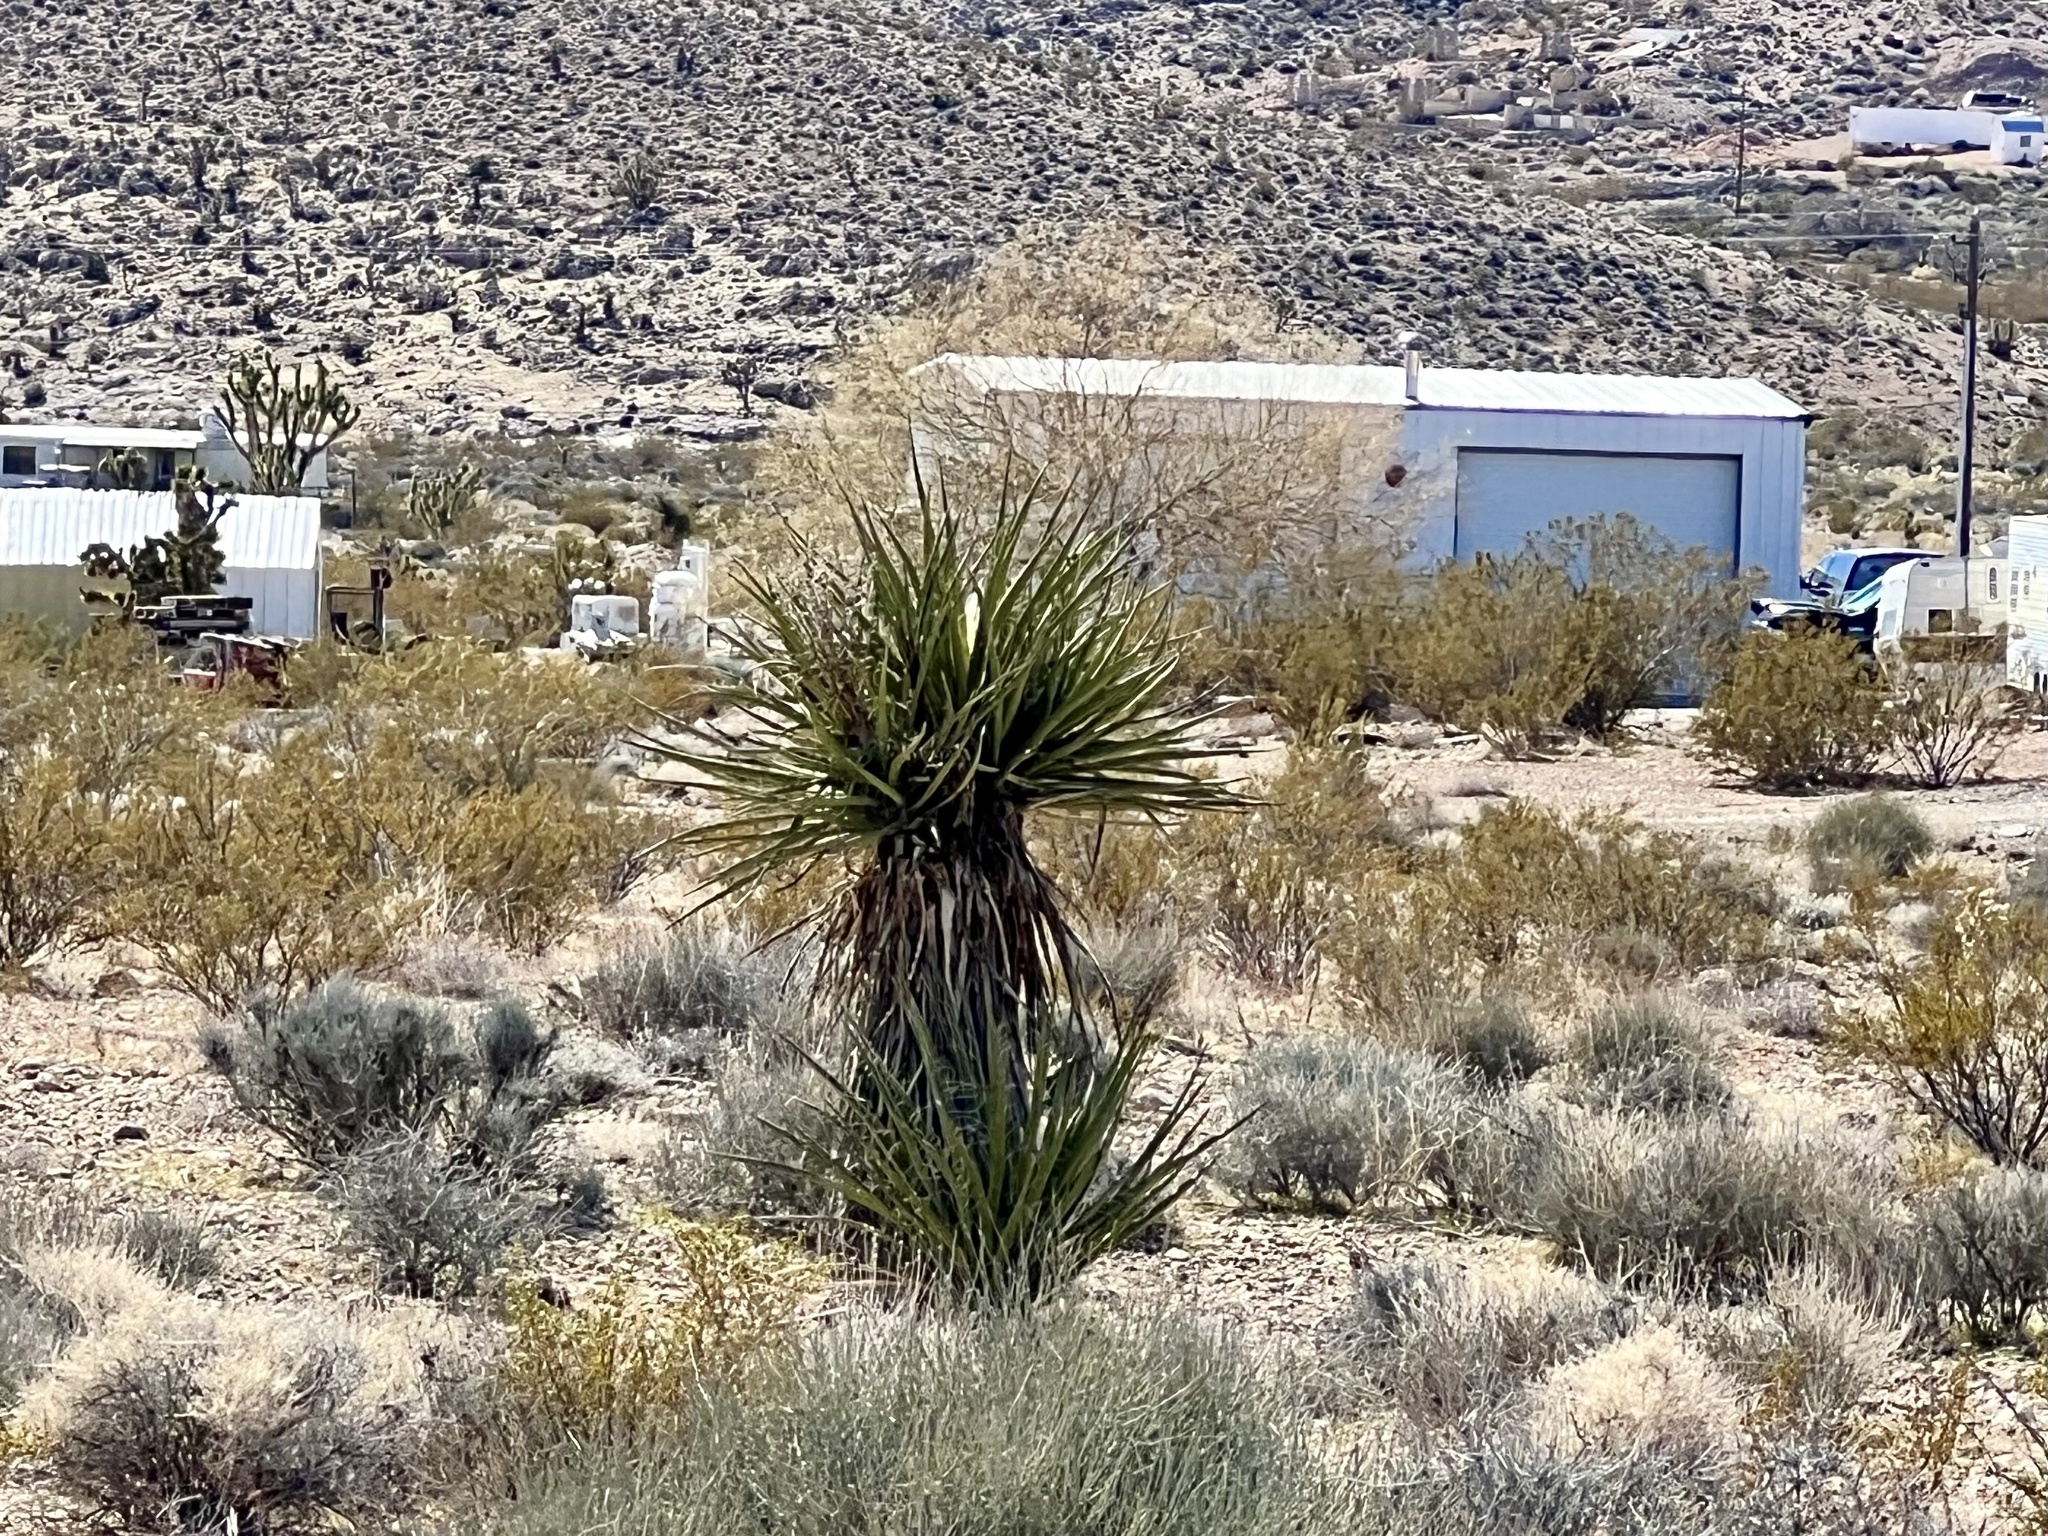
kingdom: Plantae
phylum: Tracheophyta
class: Liliopsida
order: Asparagales
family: Asparagaceae
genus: Yucca
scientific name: Yucca schidigera
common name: Mojave yucca
